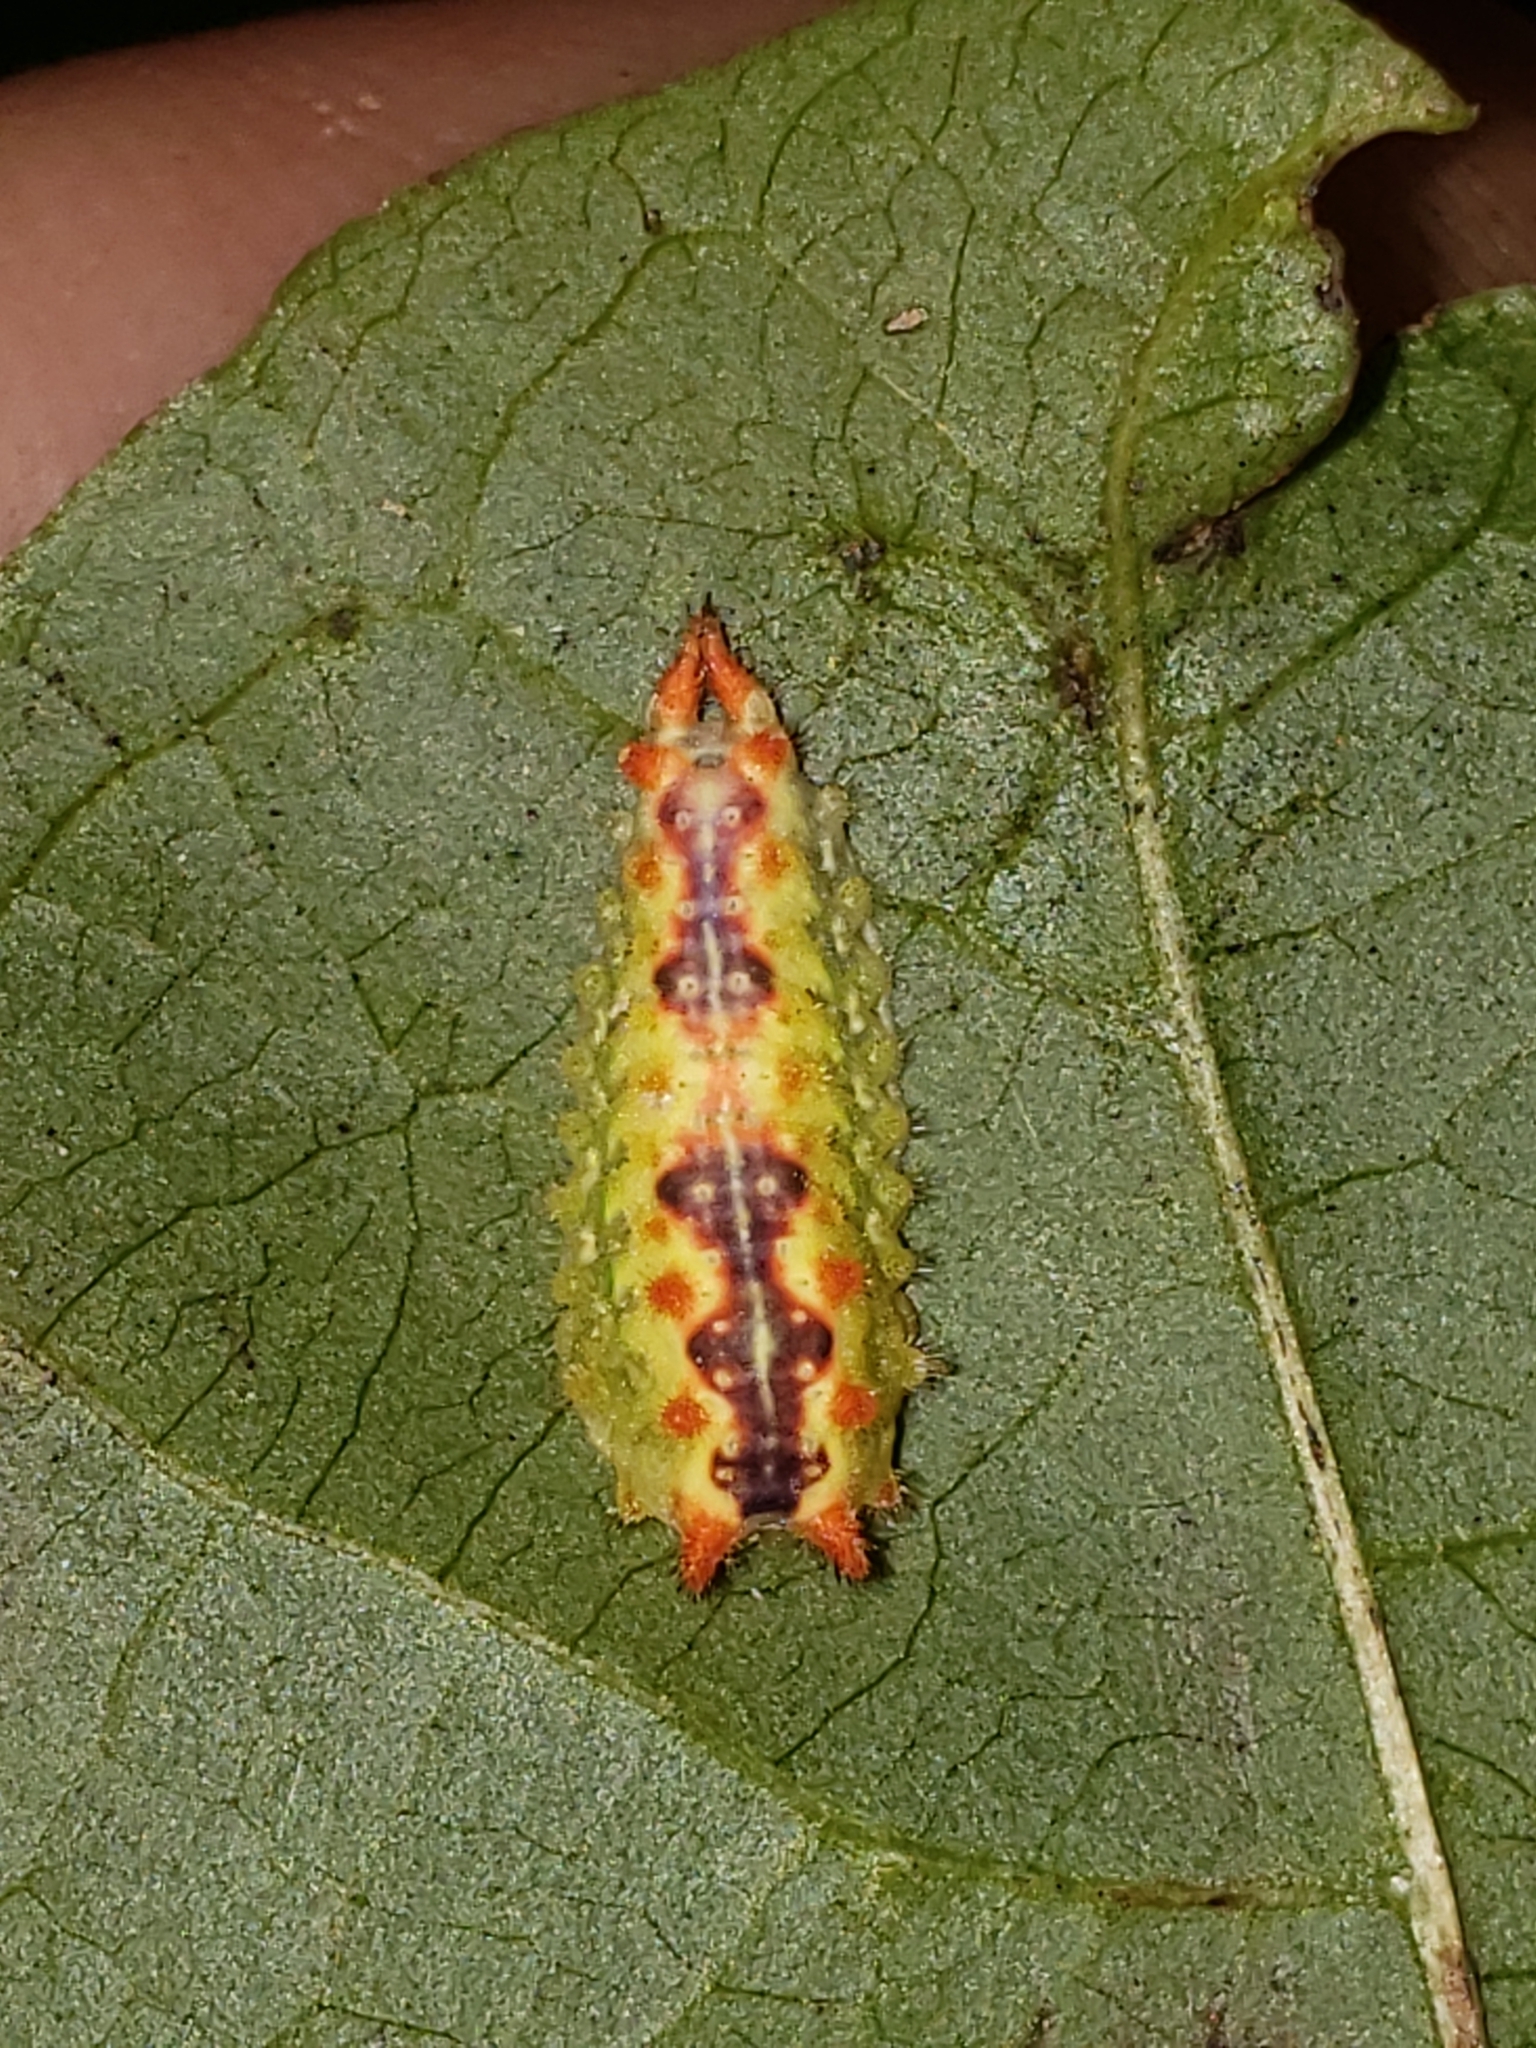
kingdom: Animalia
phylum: Arthropoda
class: Insecta
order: Lepidoptera
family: Limacodidae
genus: Adoneta
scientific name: Adoneta spinuloides
